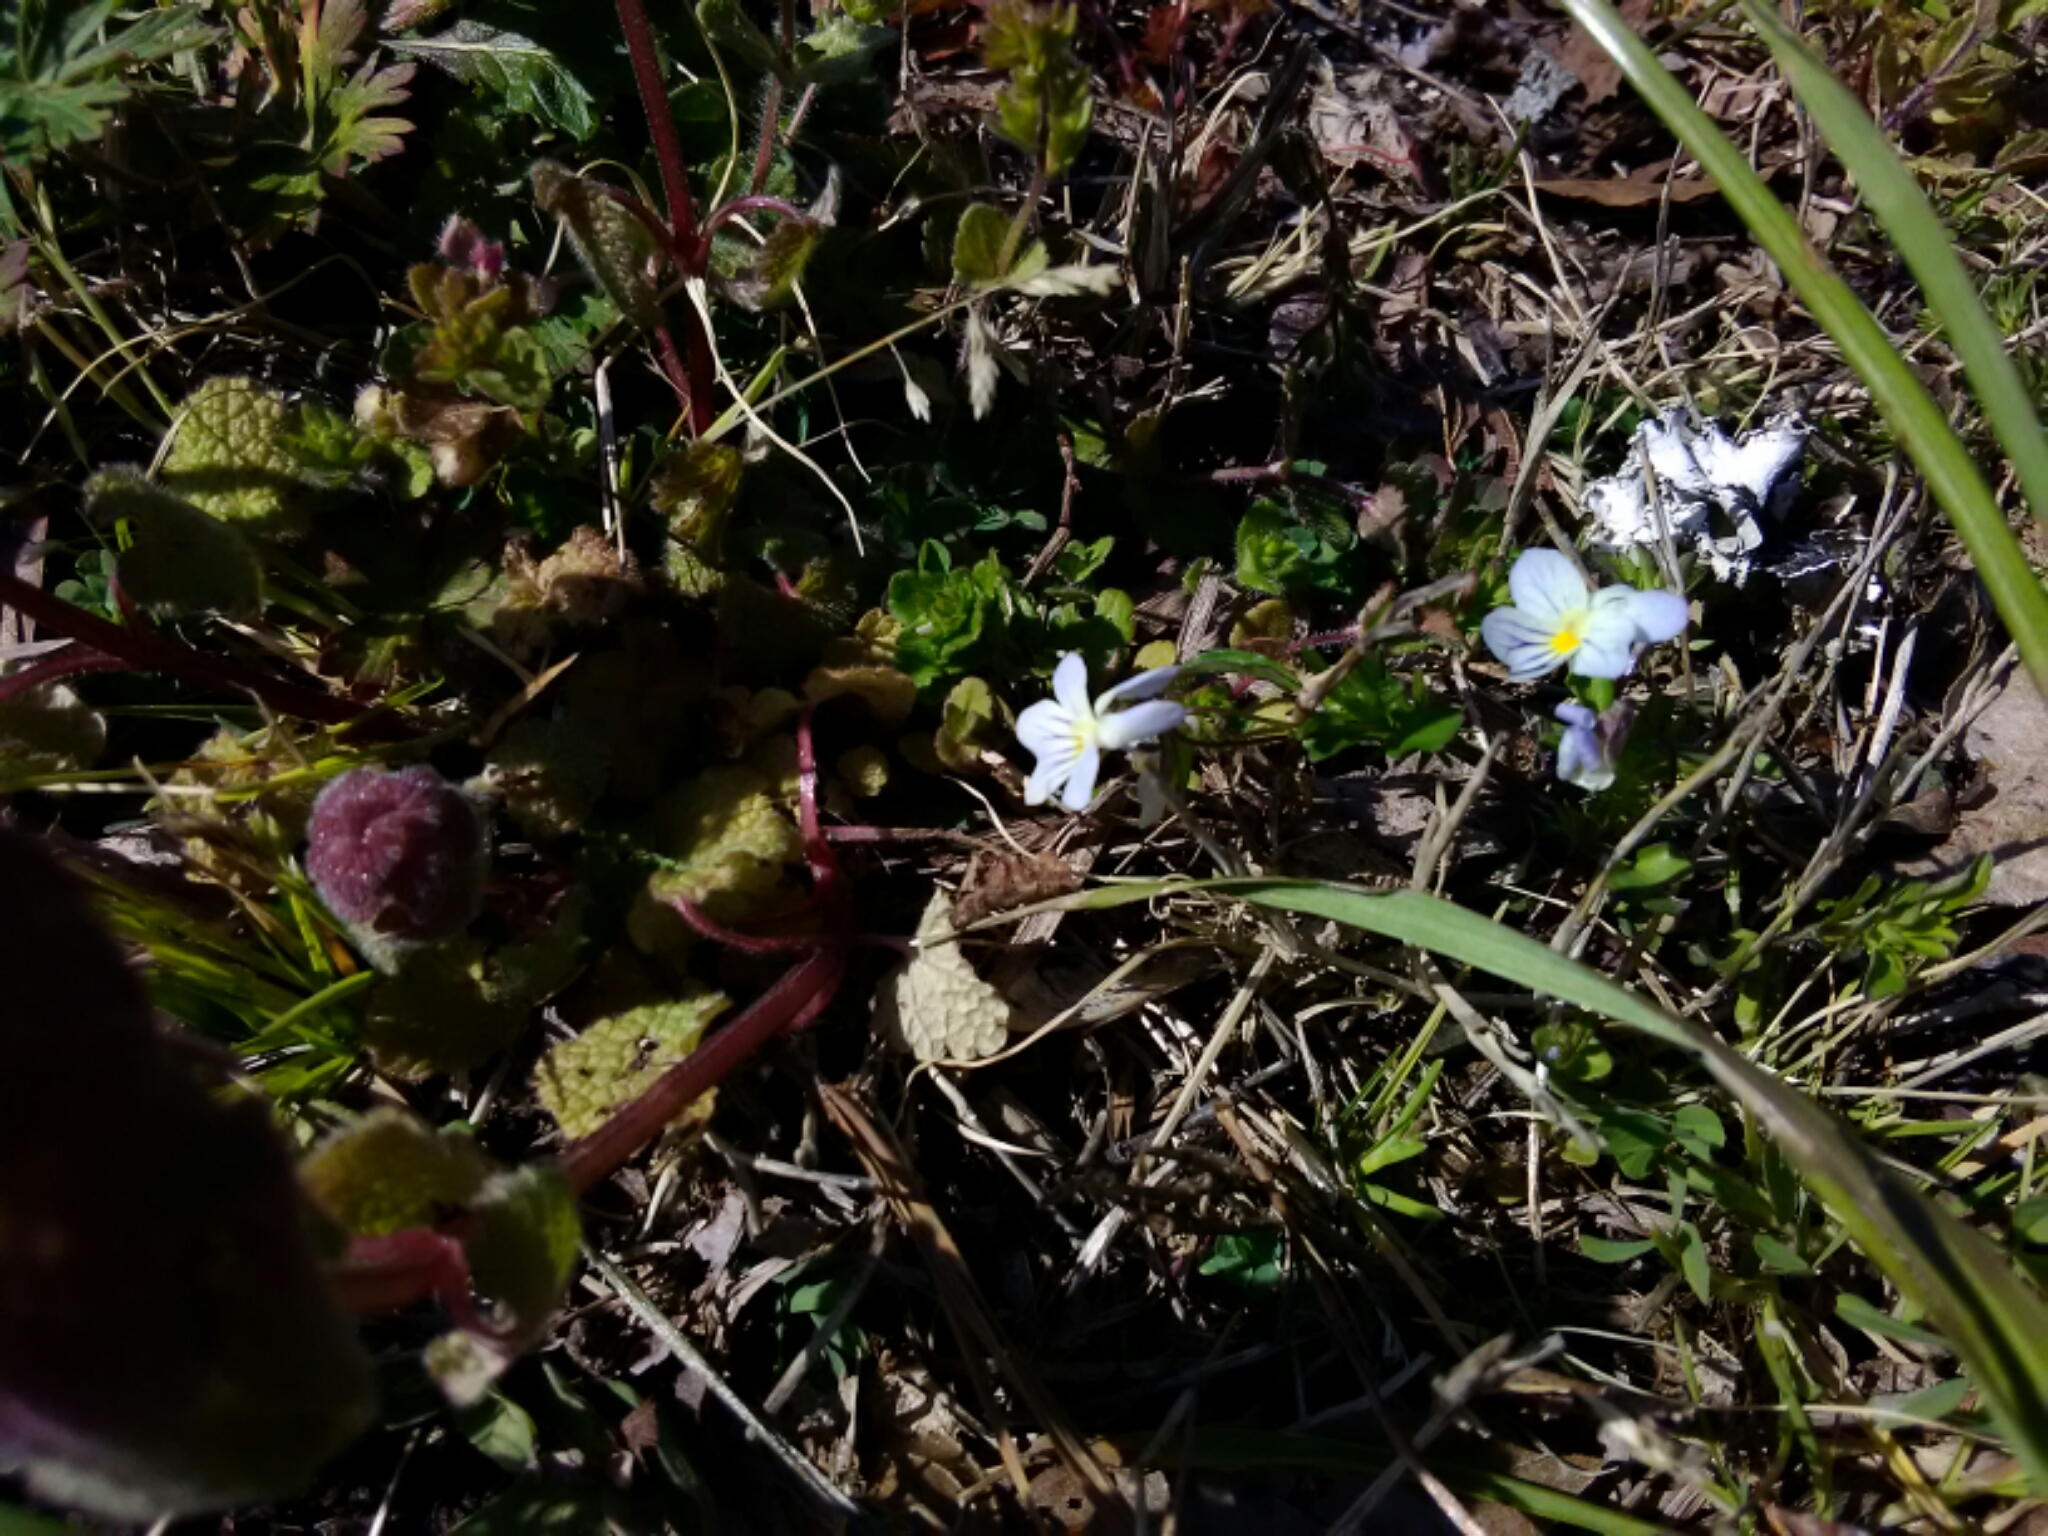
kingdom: Plantae
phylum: Tracheophyta
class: Magnoliopsida
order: Malpighiales
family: Violaceae
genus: Viola
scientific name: Viola rafinesquei
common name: American field pansy
